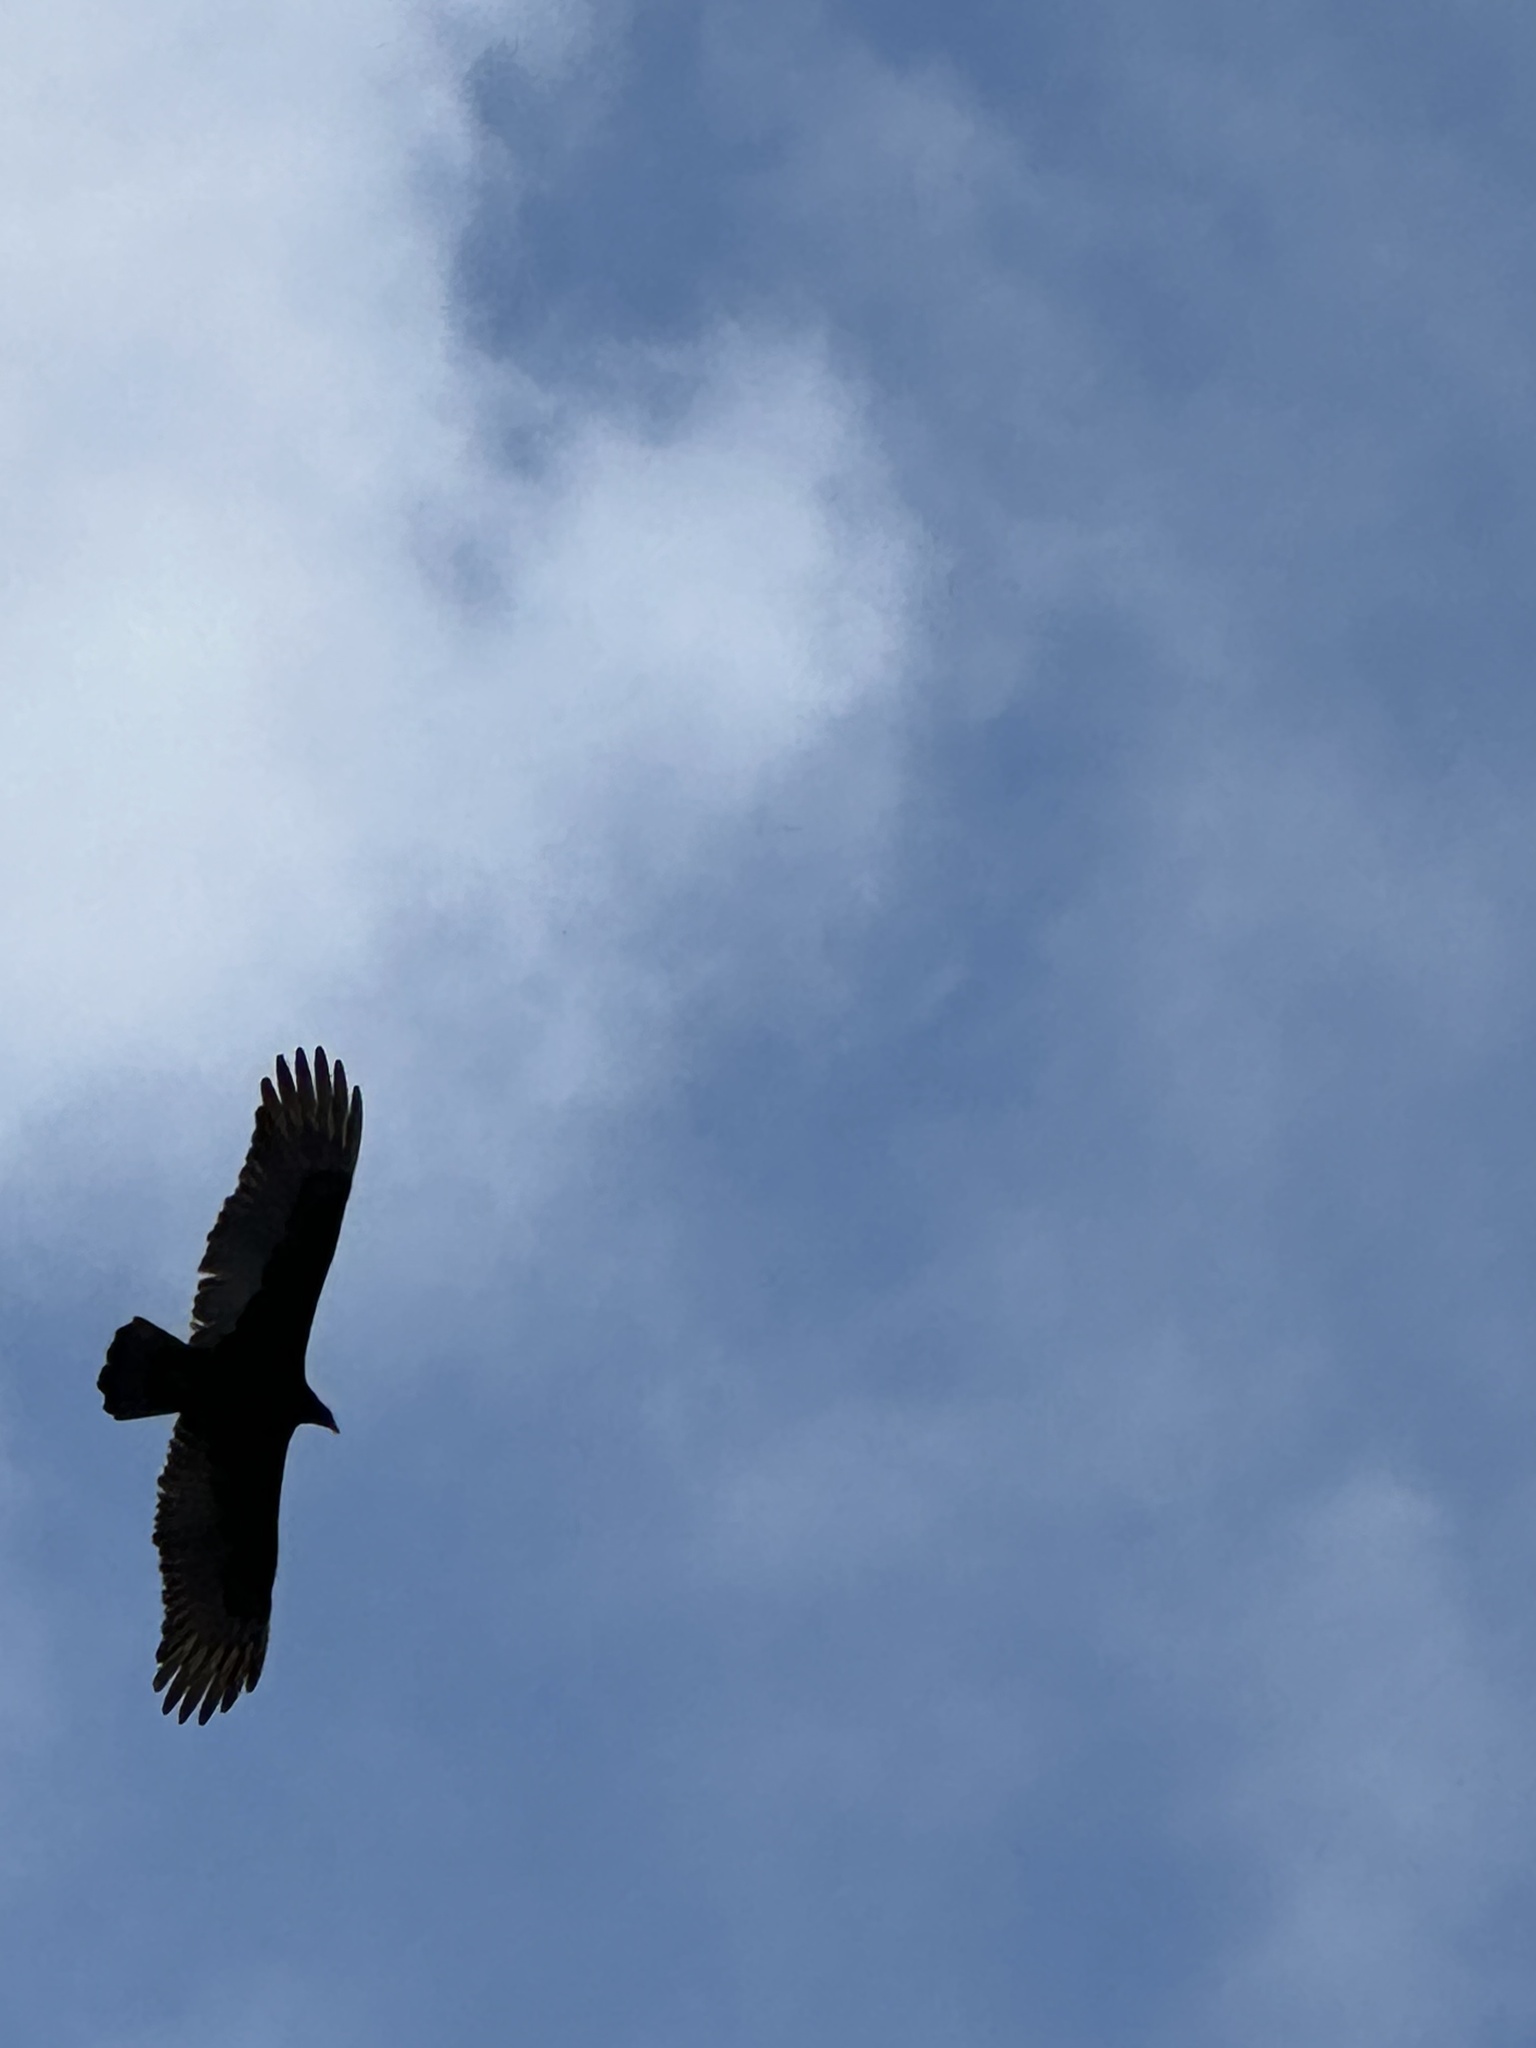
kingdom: Animalia
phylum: Chordata
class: Aves
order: Accipitriformes
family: Cathartidae
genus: Cathartes
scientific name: Cathartes aura
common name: Turkey vulture
